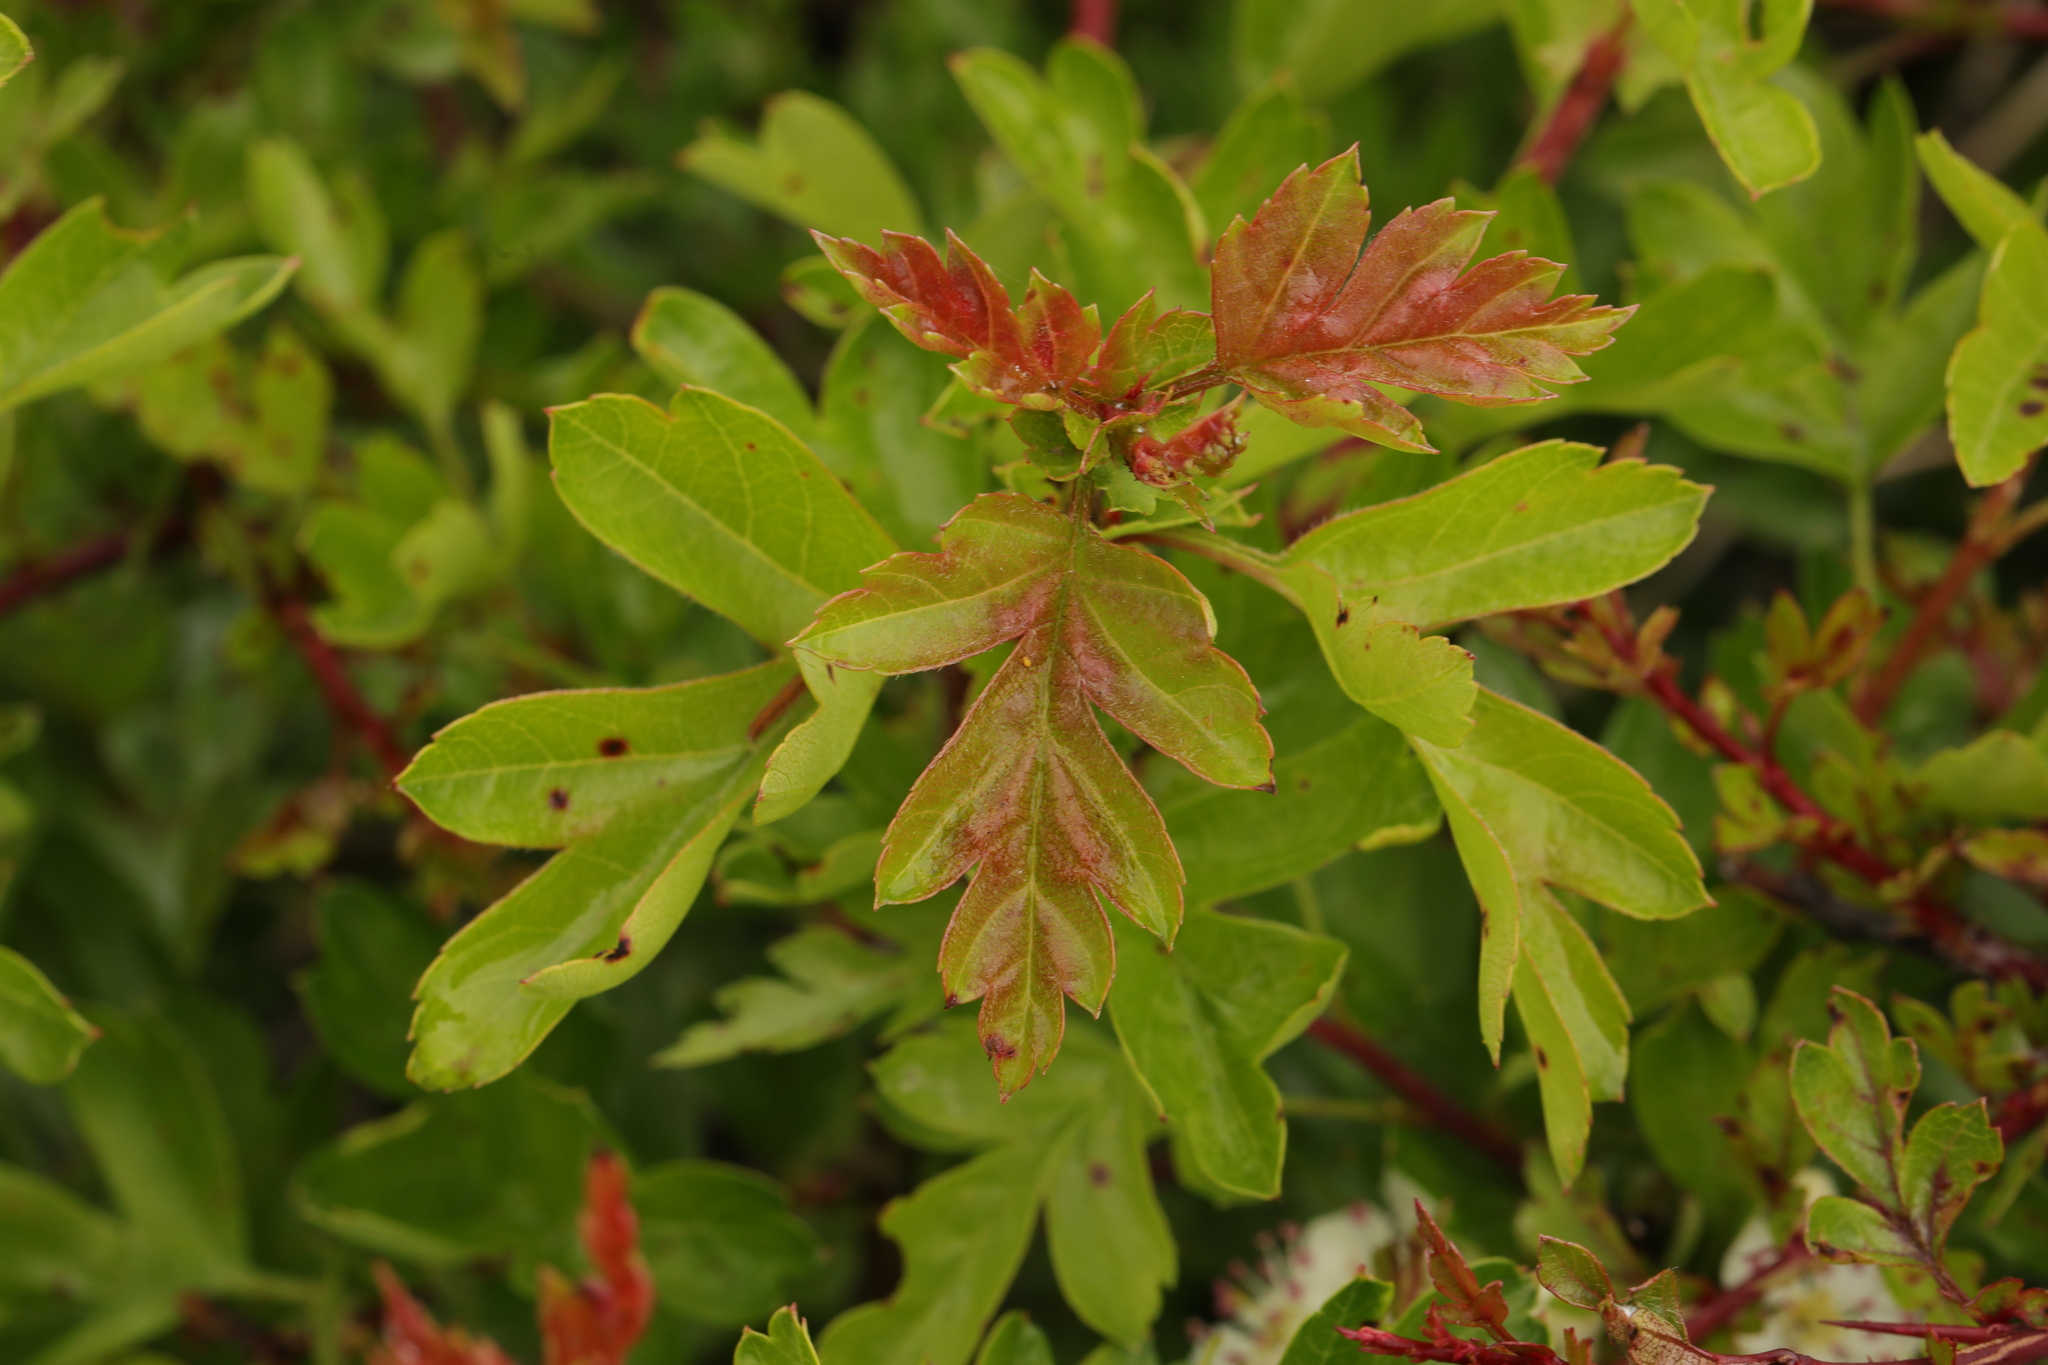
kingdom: Plantae
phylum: Tracheophyta
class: Magnoliopsida
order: Rosales
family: Rosaceae
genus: Crataegus
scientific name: Crataegus monogyna
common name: Hawthorn
